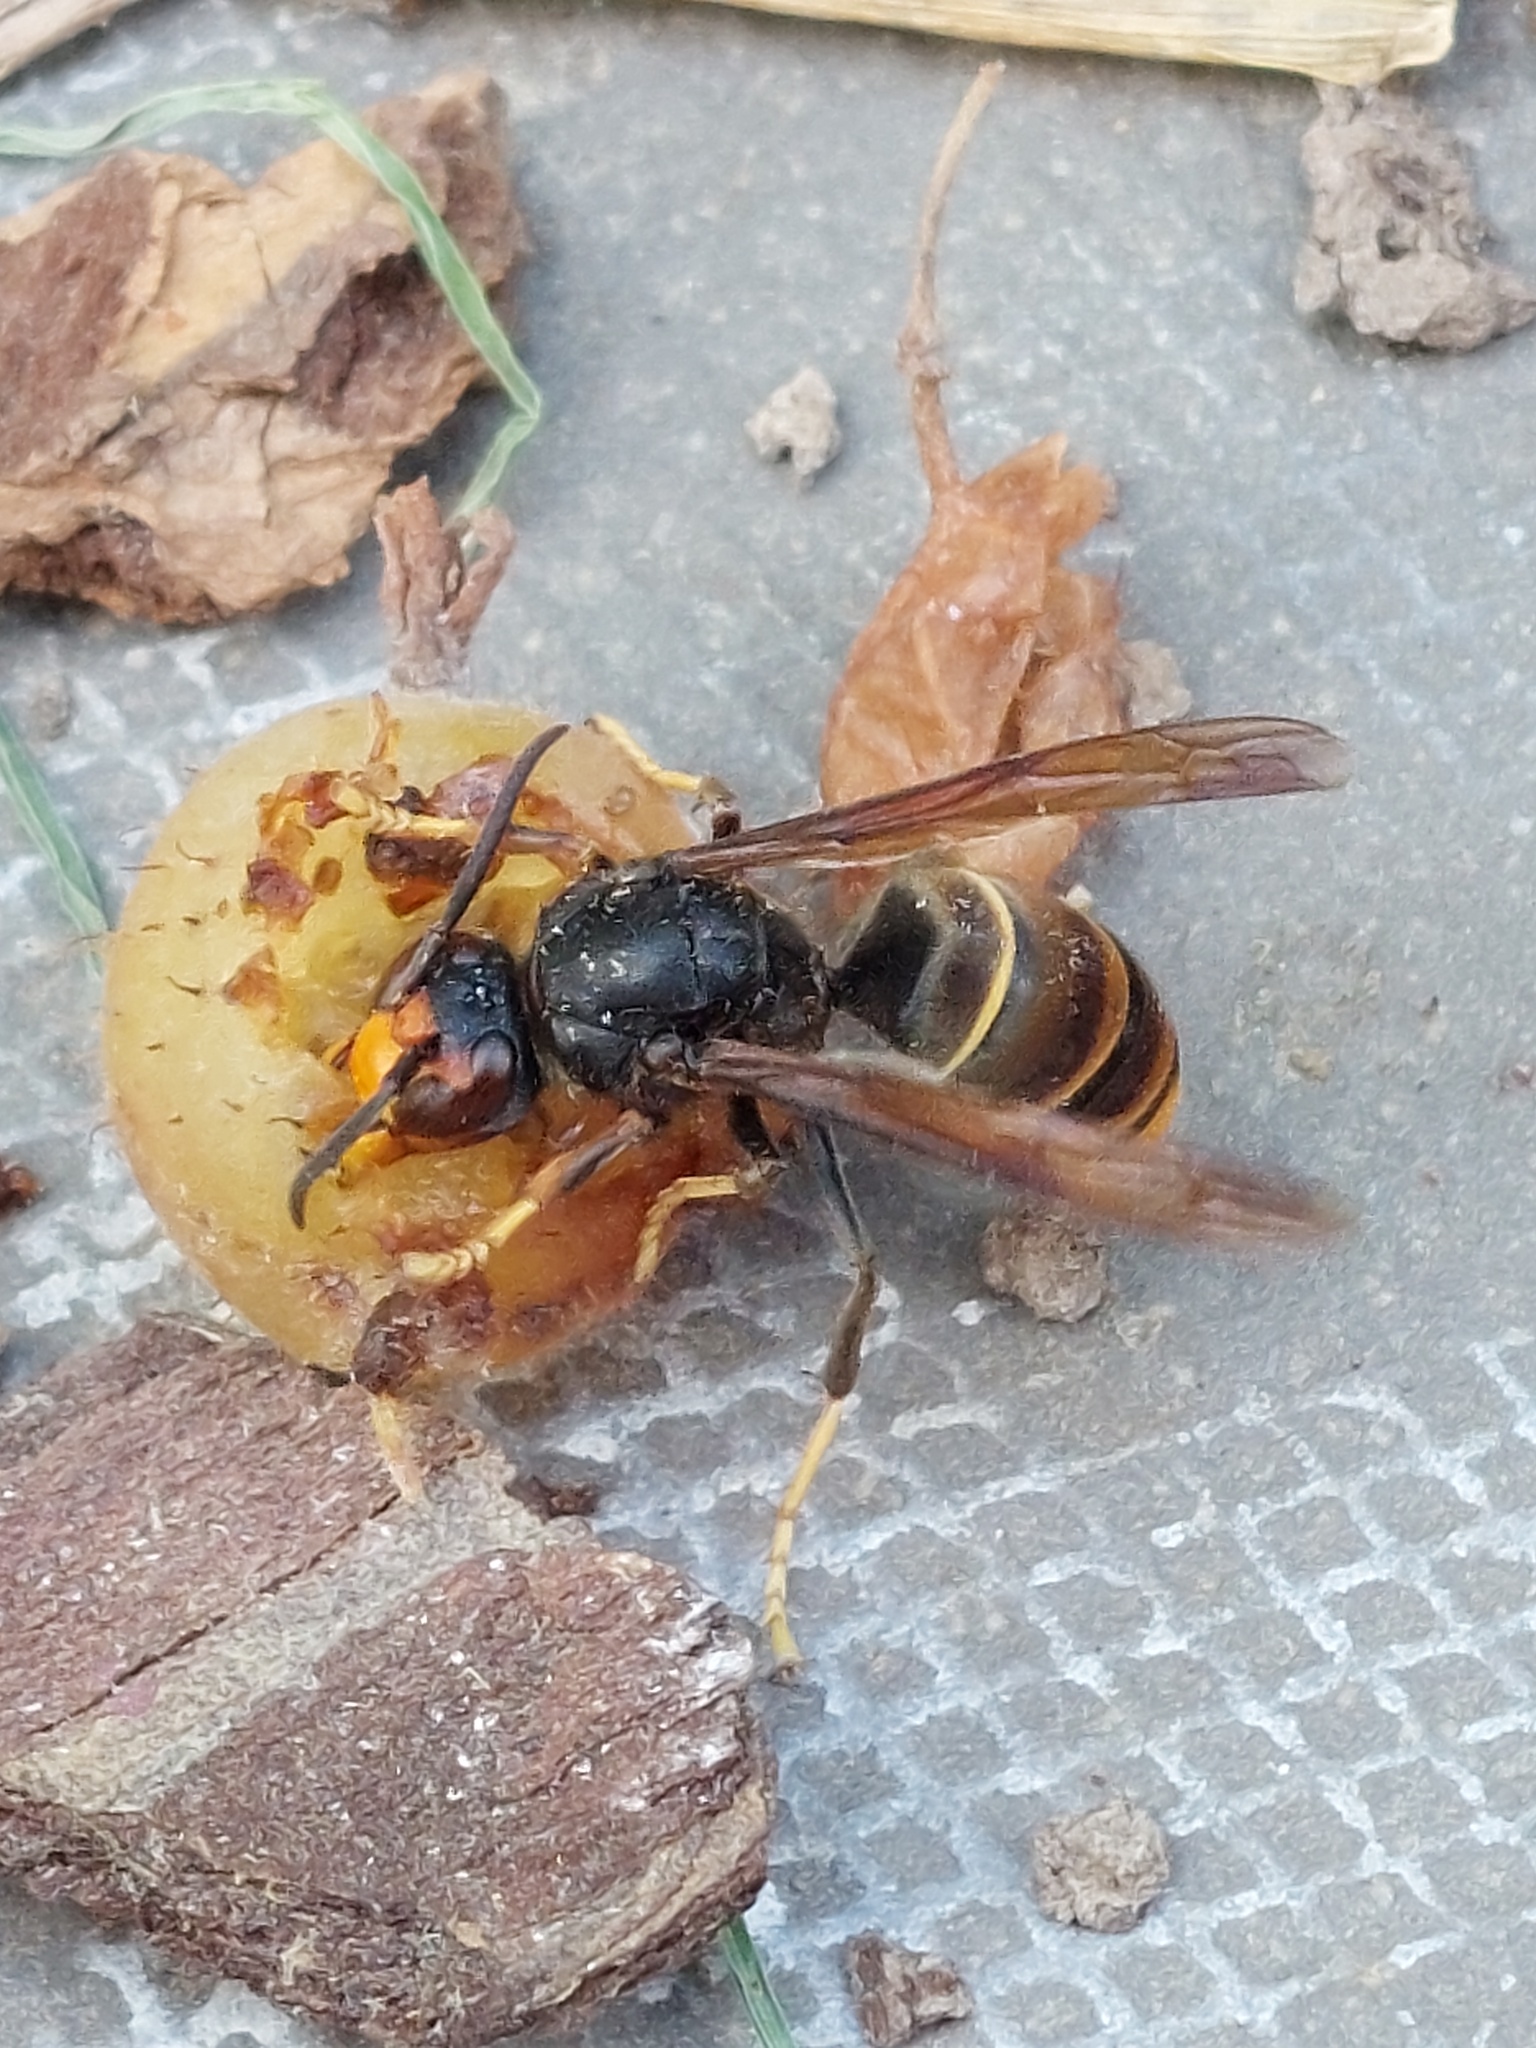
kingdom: Animalia
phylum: Arthropoda
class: Insecta
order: Hymenoptera
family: Vespidae
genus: Vespa
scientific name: Vespa velutina
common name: Asian hornet
